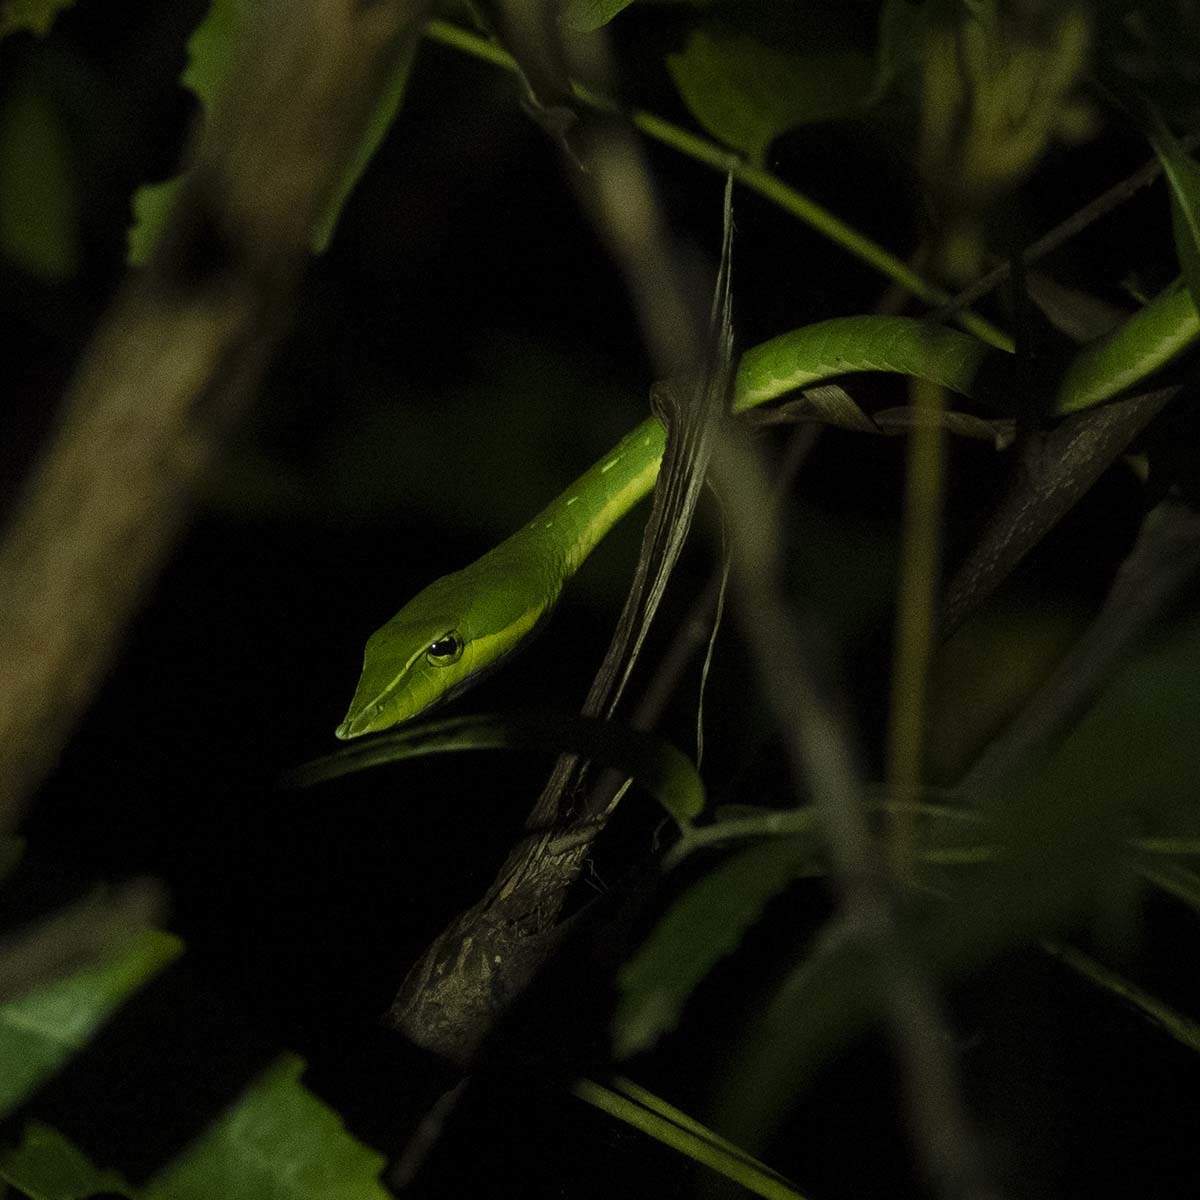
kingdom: Animalia
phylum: Chordata
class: Squamata
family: Colubridae
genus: Ahaetulla
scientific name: Ahaetulla oxyrhyncha
